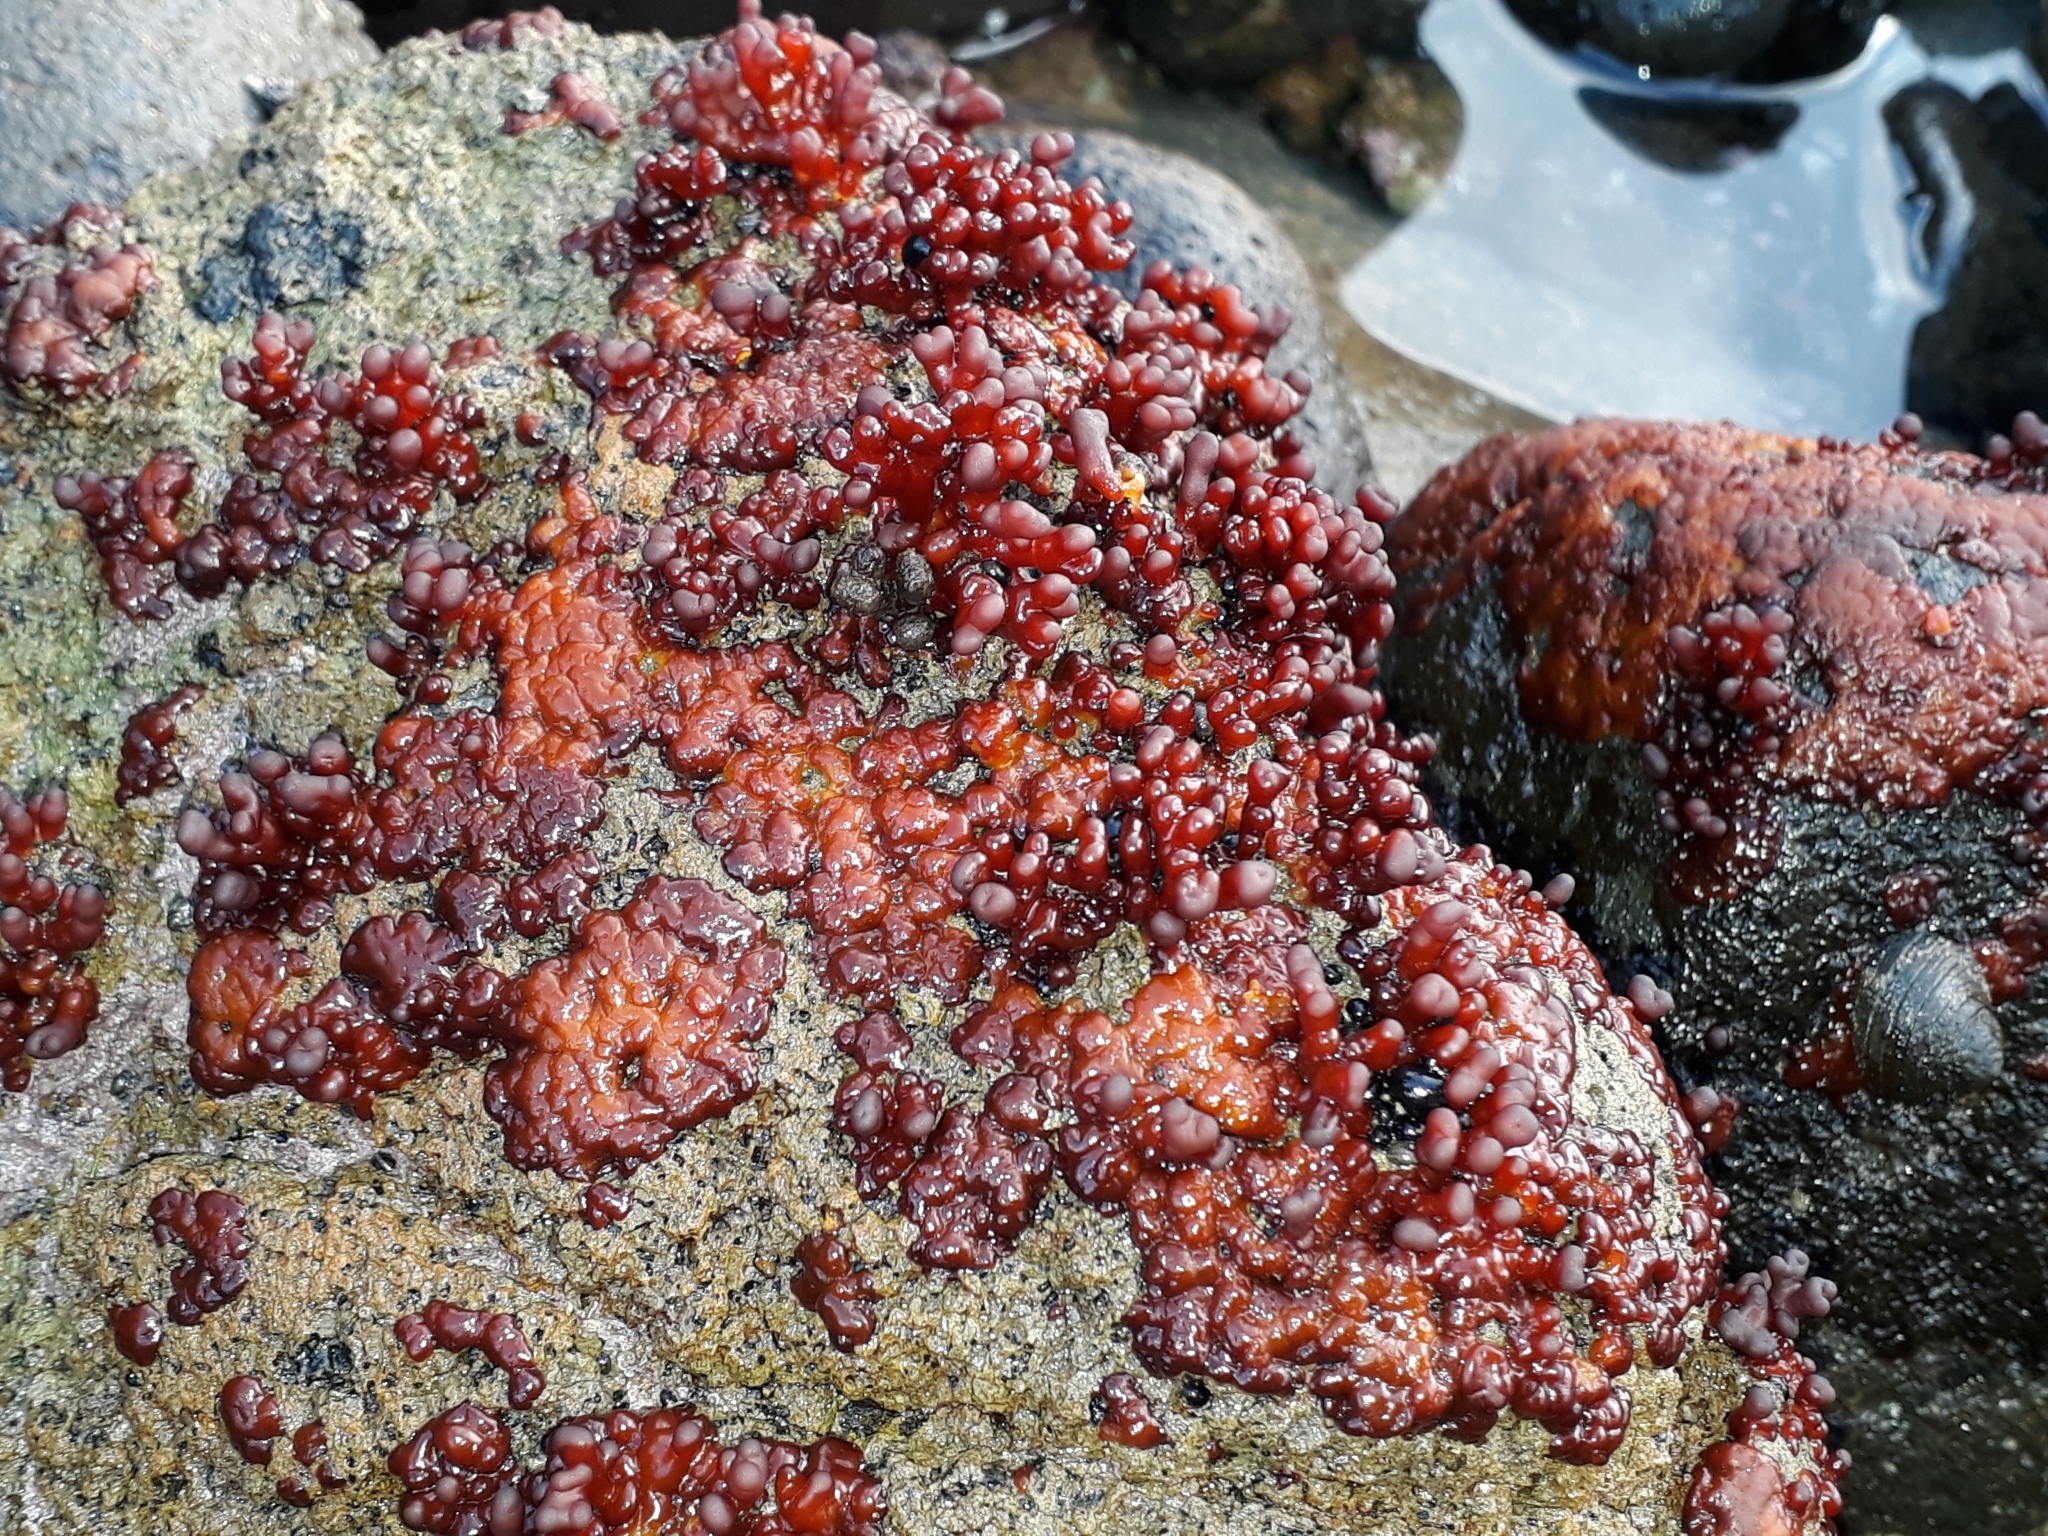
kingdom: Plantae
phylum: Rhodophyta
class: Florideophyceae
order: Hildenbrandiales
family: Hildenbrandiaceae
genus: Apophlaea
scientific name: Apophlaea sinclairii
